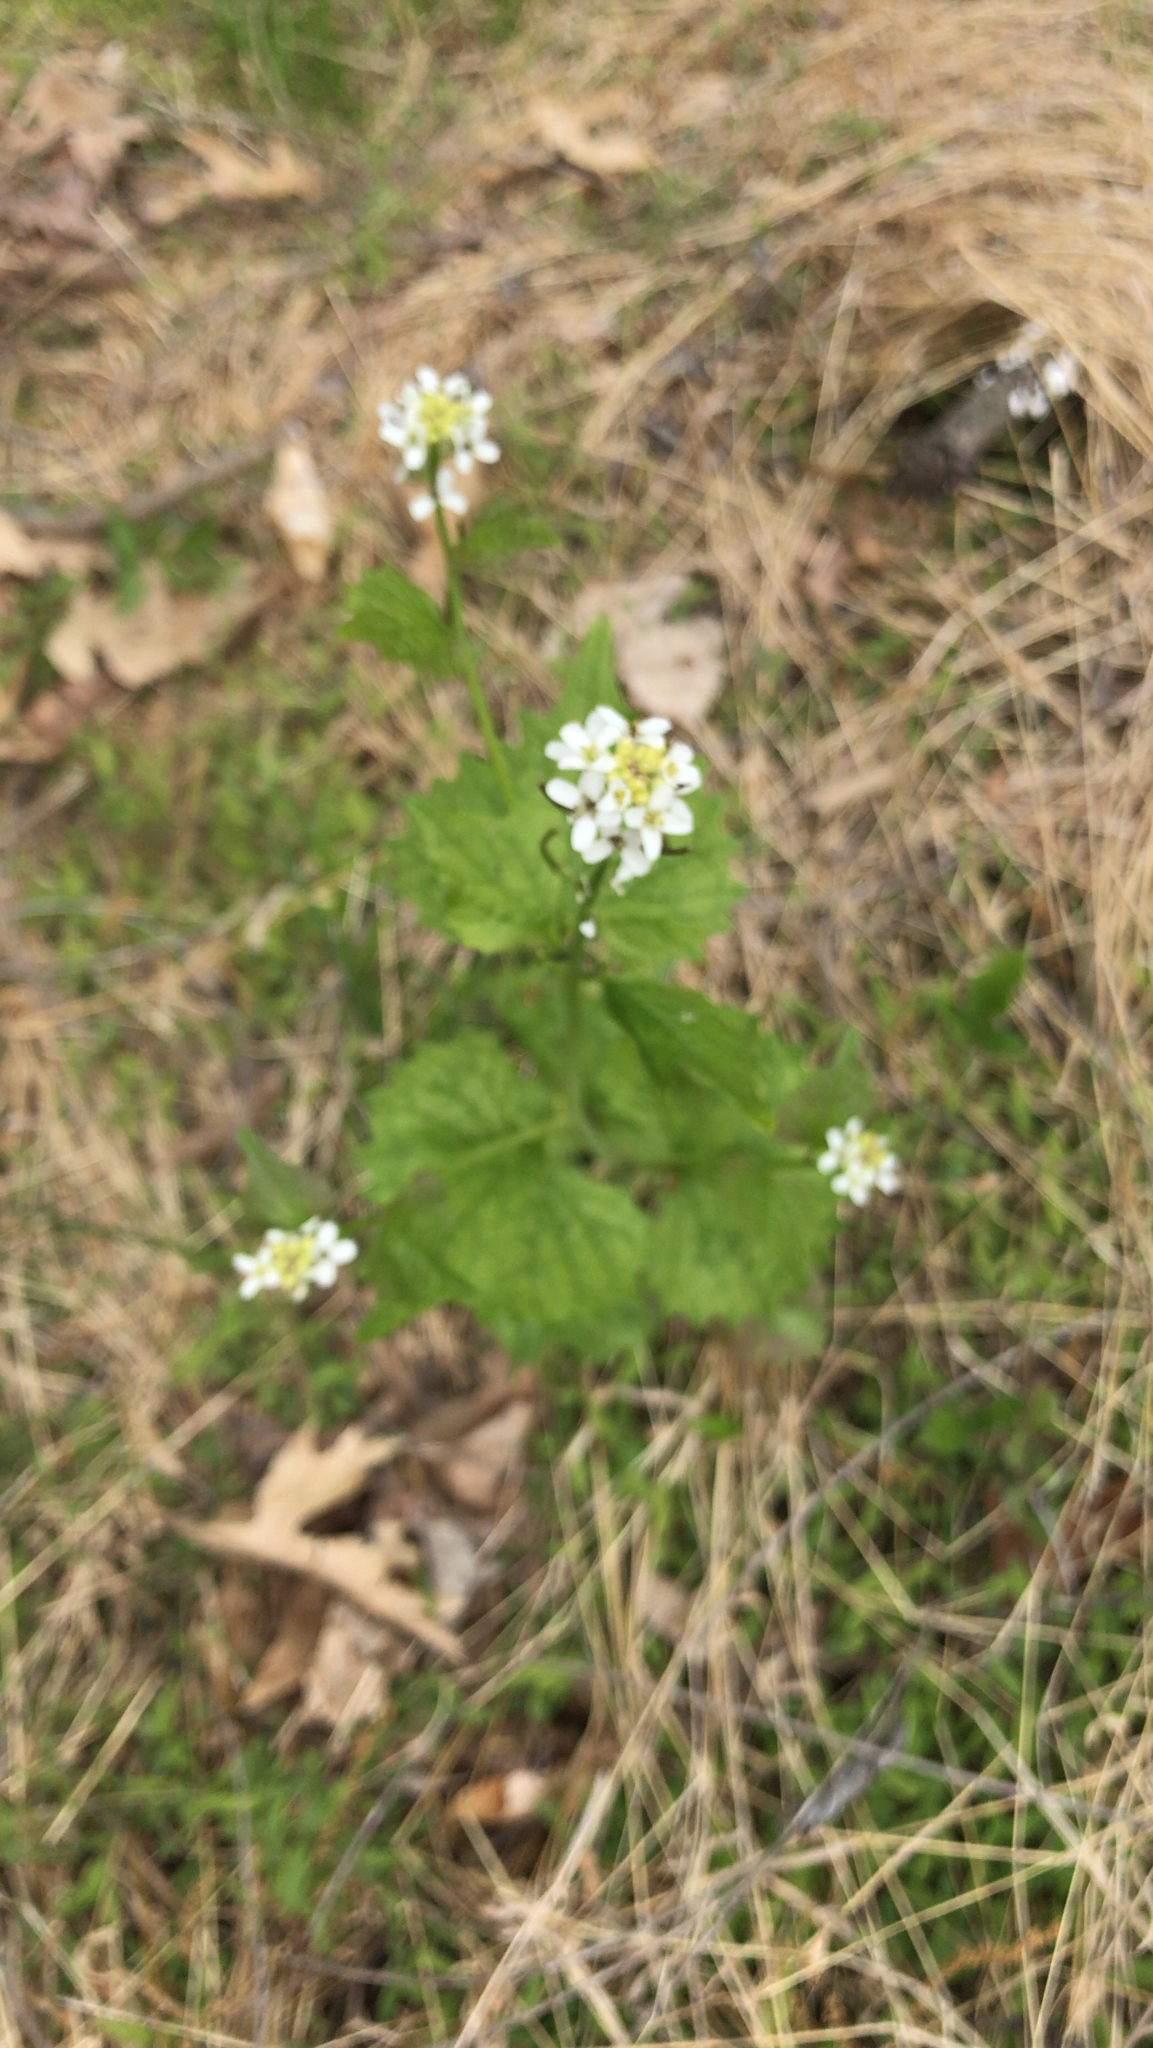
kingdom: Plantae
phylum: Tracheophyta
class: Magnoliopsida
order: Brassicales
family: Brassicaceae
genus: Alliaria
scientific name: Alliaria petiolata
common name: Garlic mustard
